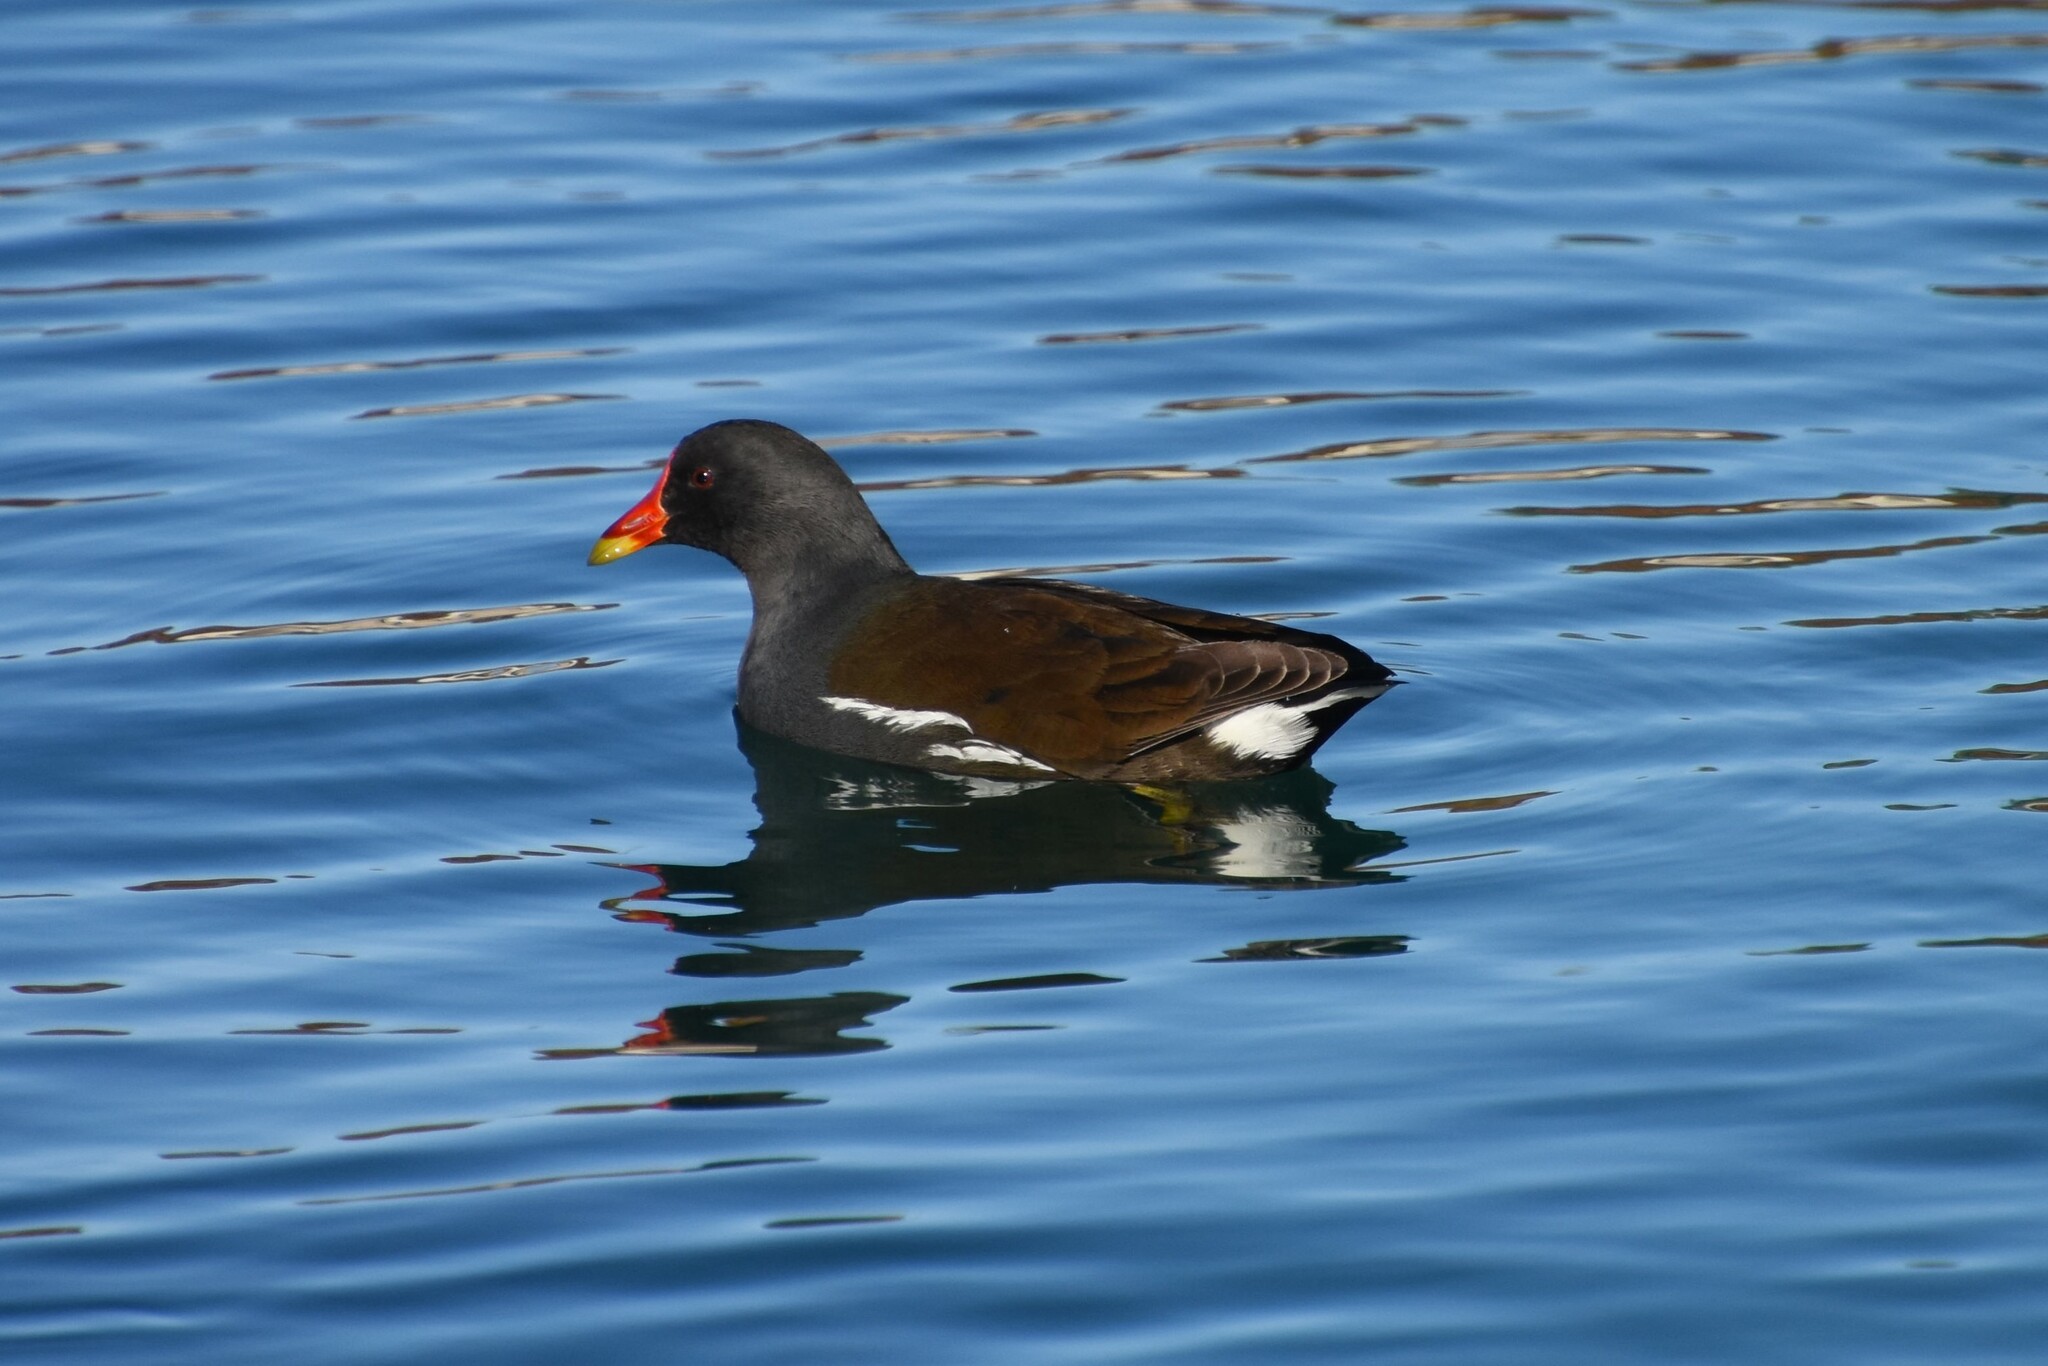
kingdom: Animalia
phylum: Chordata
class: Aves
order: Gruiformes
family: Rallidae
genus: Gallinula
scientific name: Gallinula chloropus
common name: Common moorhen
